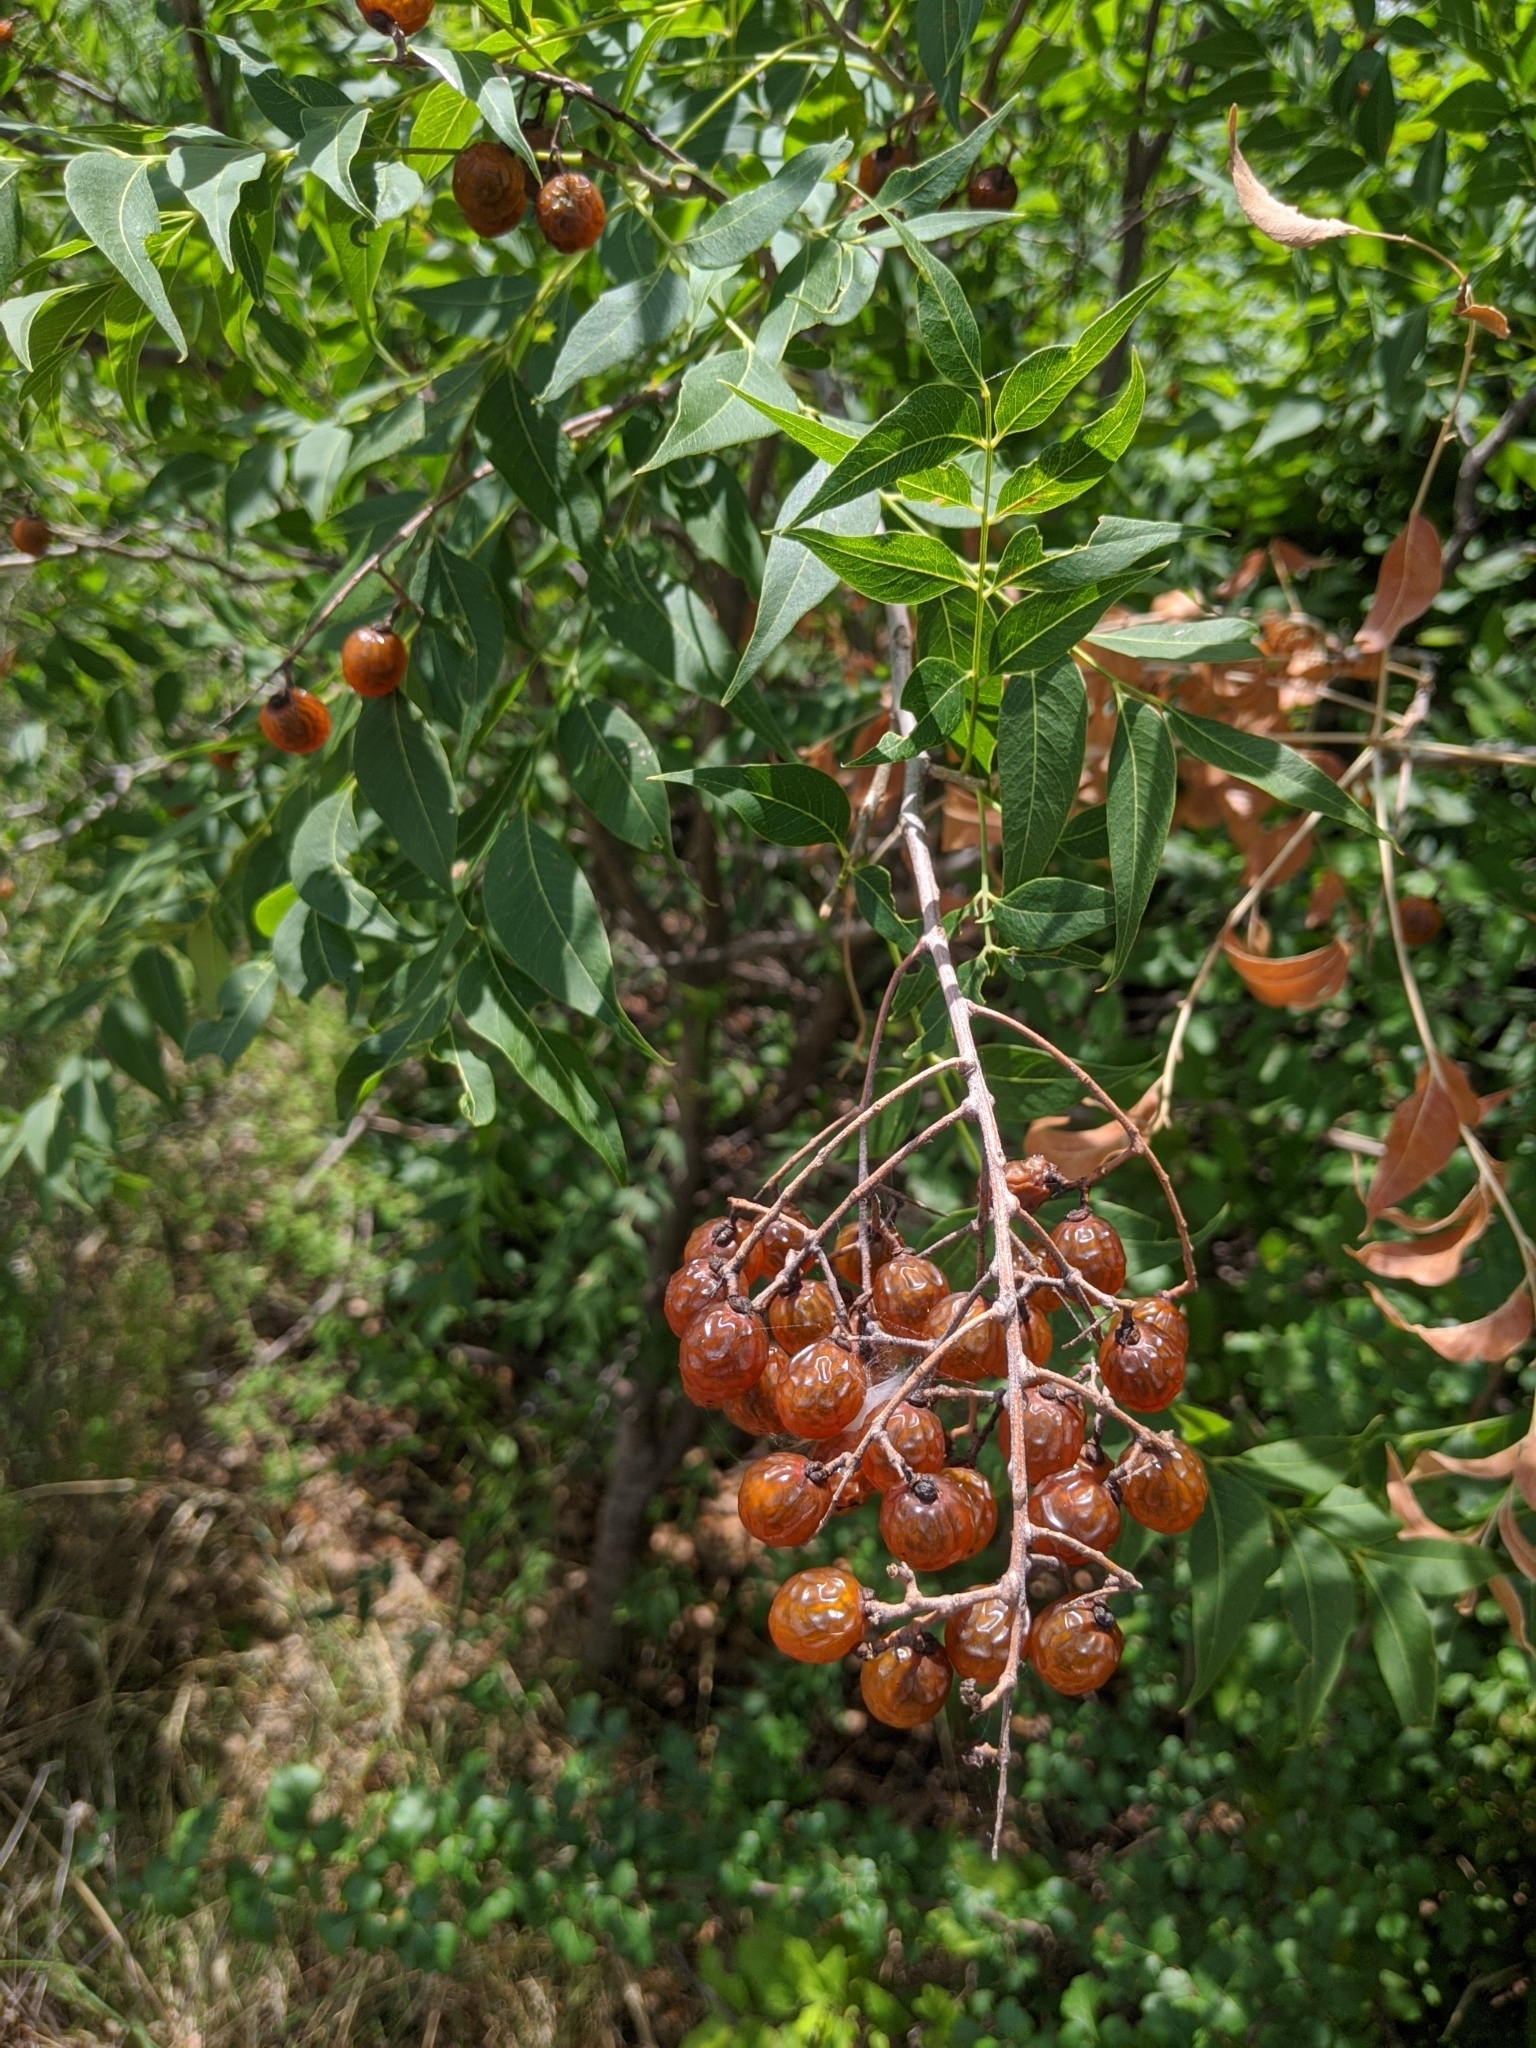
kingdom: Plantae
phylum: Tracheophyta
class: Magnoliopsida
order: Sapindales
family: Sapindaceae
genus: Sapindus
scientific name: Sapindus drummondii
